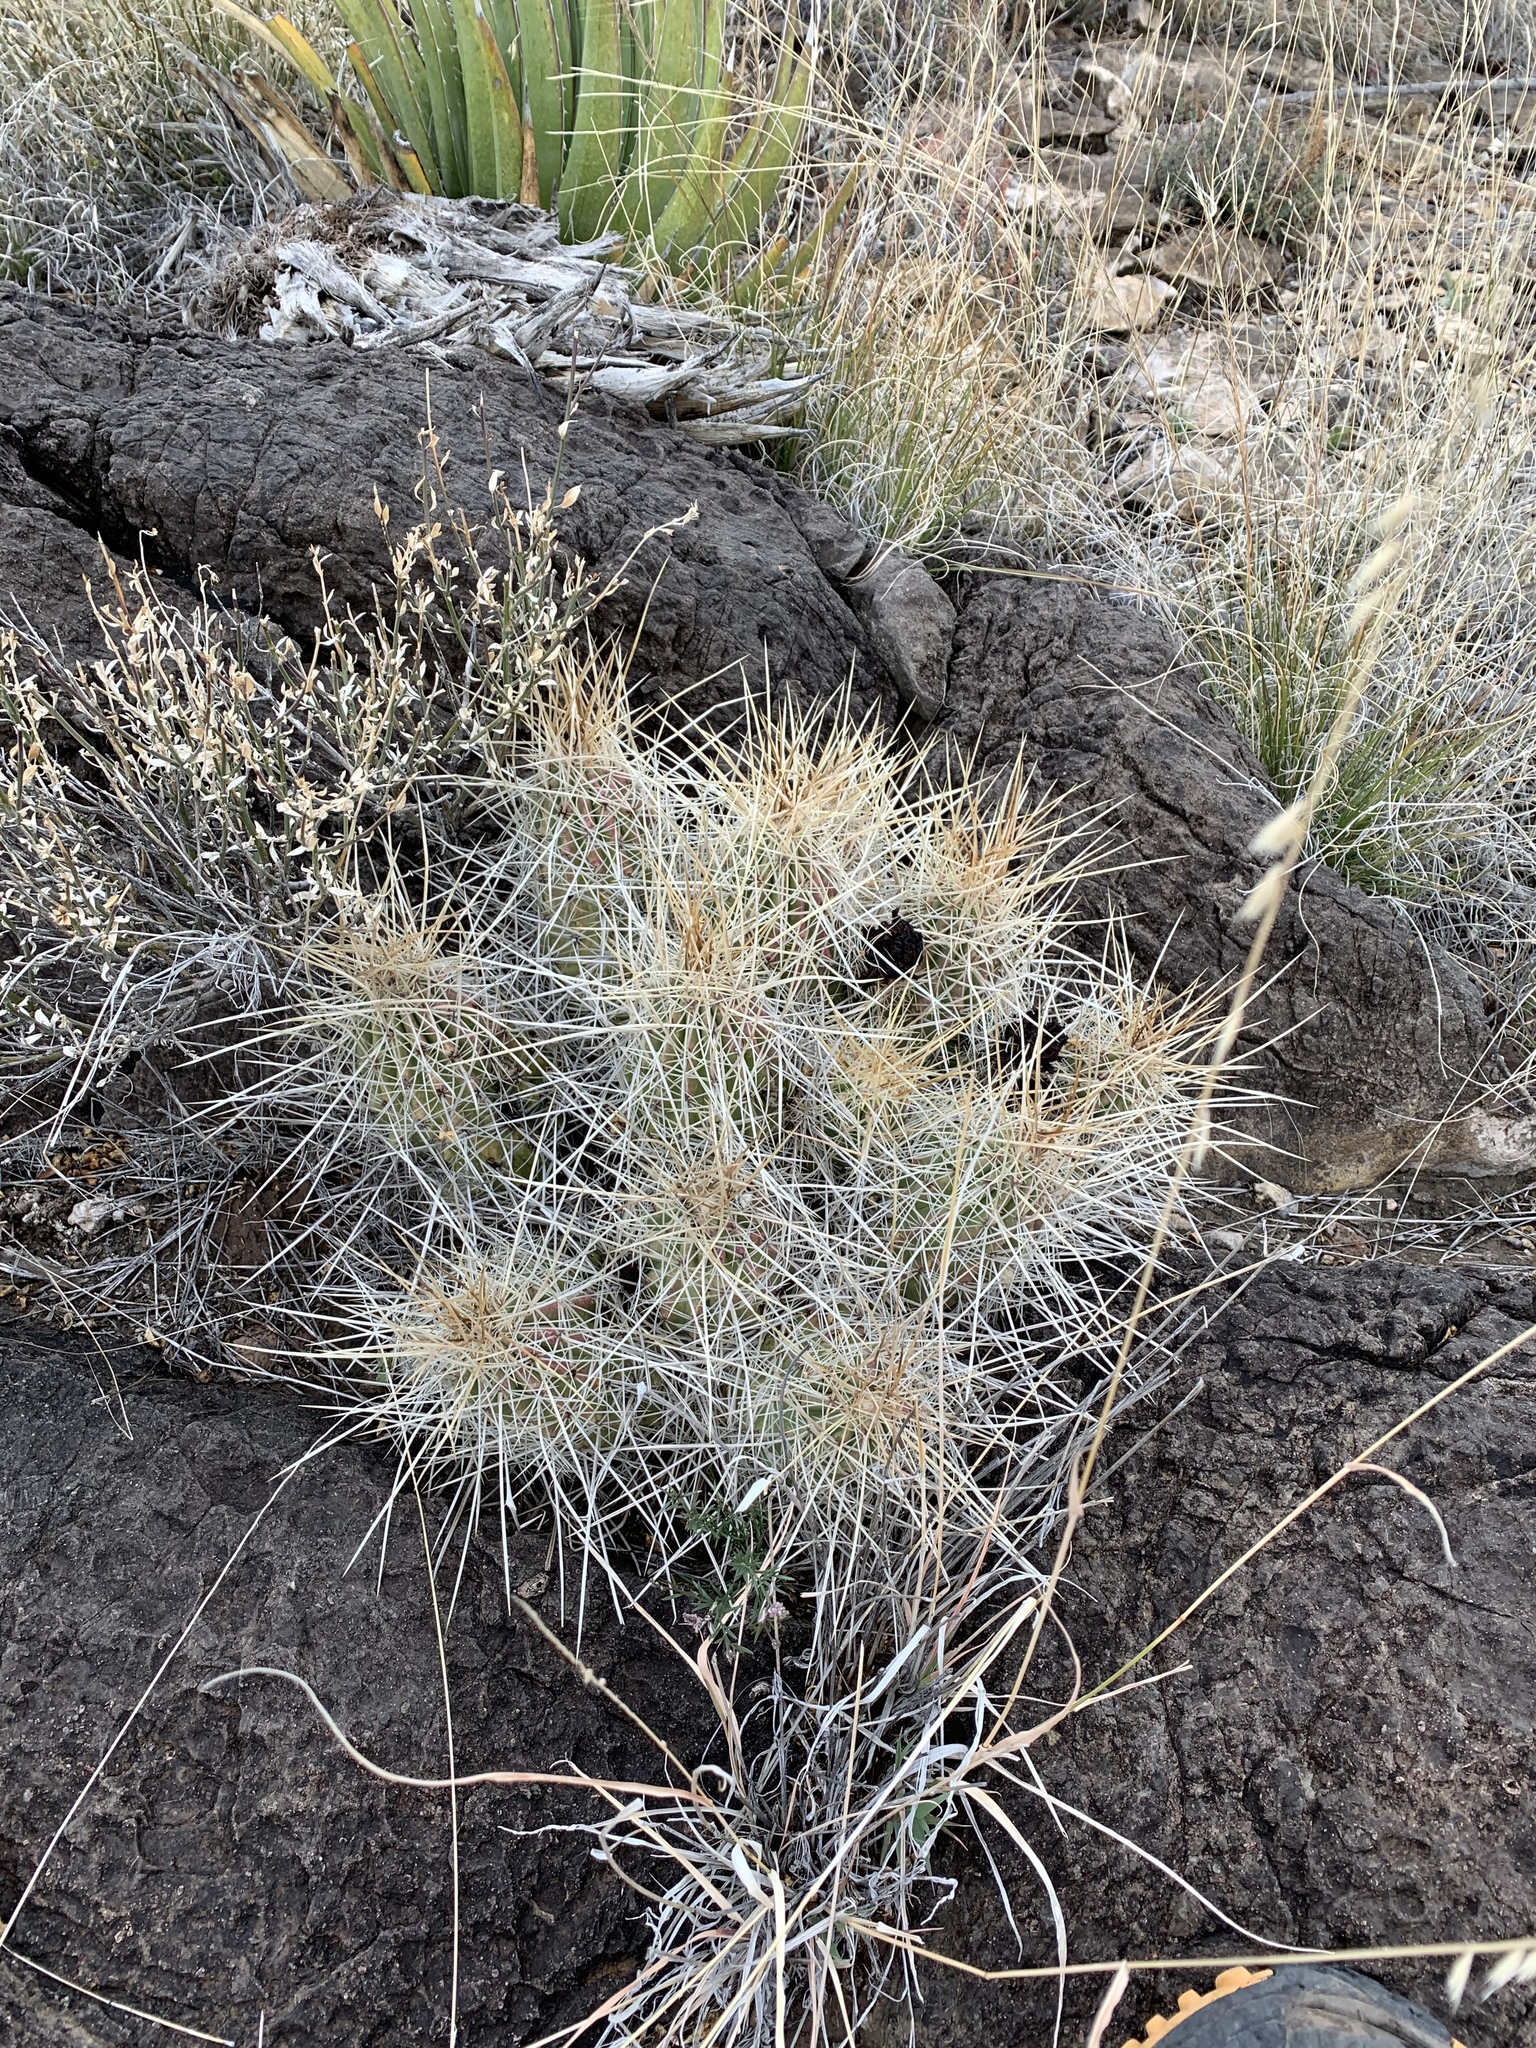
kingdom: Plantae
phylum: Tracheophyta
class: Magnoliopsida
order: Caryophyllales
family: Cactaceae
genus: Echinocereus
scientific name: Echinocereus stramineus
